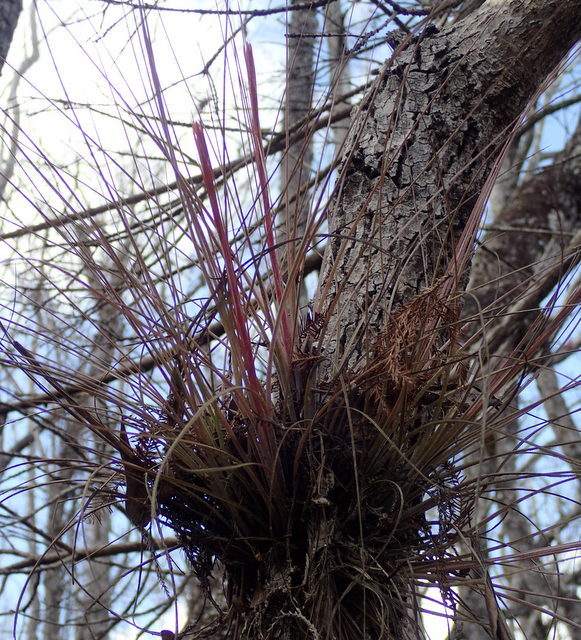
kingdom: Plantae
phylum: Tracheophyta
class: Liliopsida
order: Poales
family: Bromeliaceae
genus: Tillandsia
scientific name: Tillandsia bartramii
